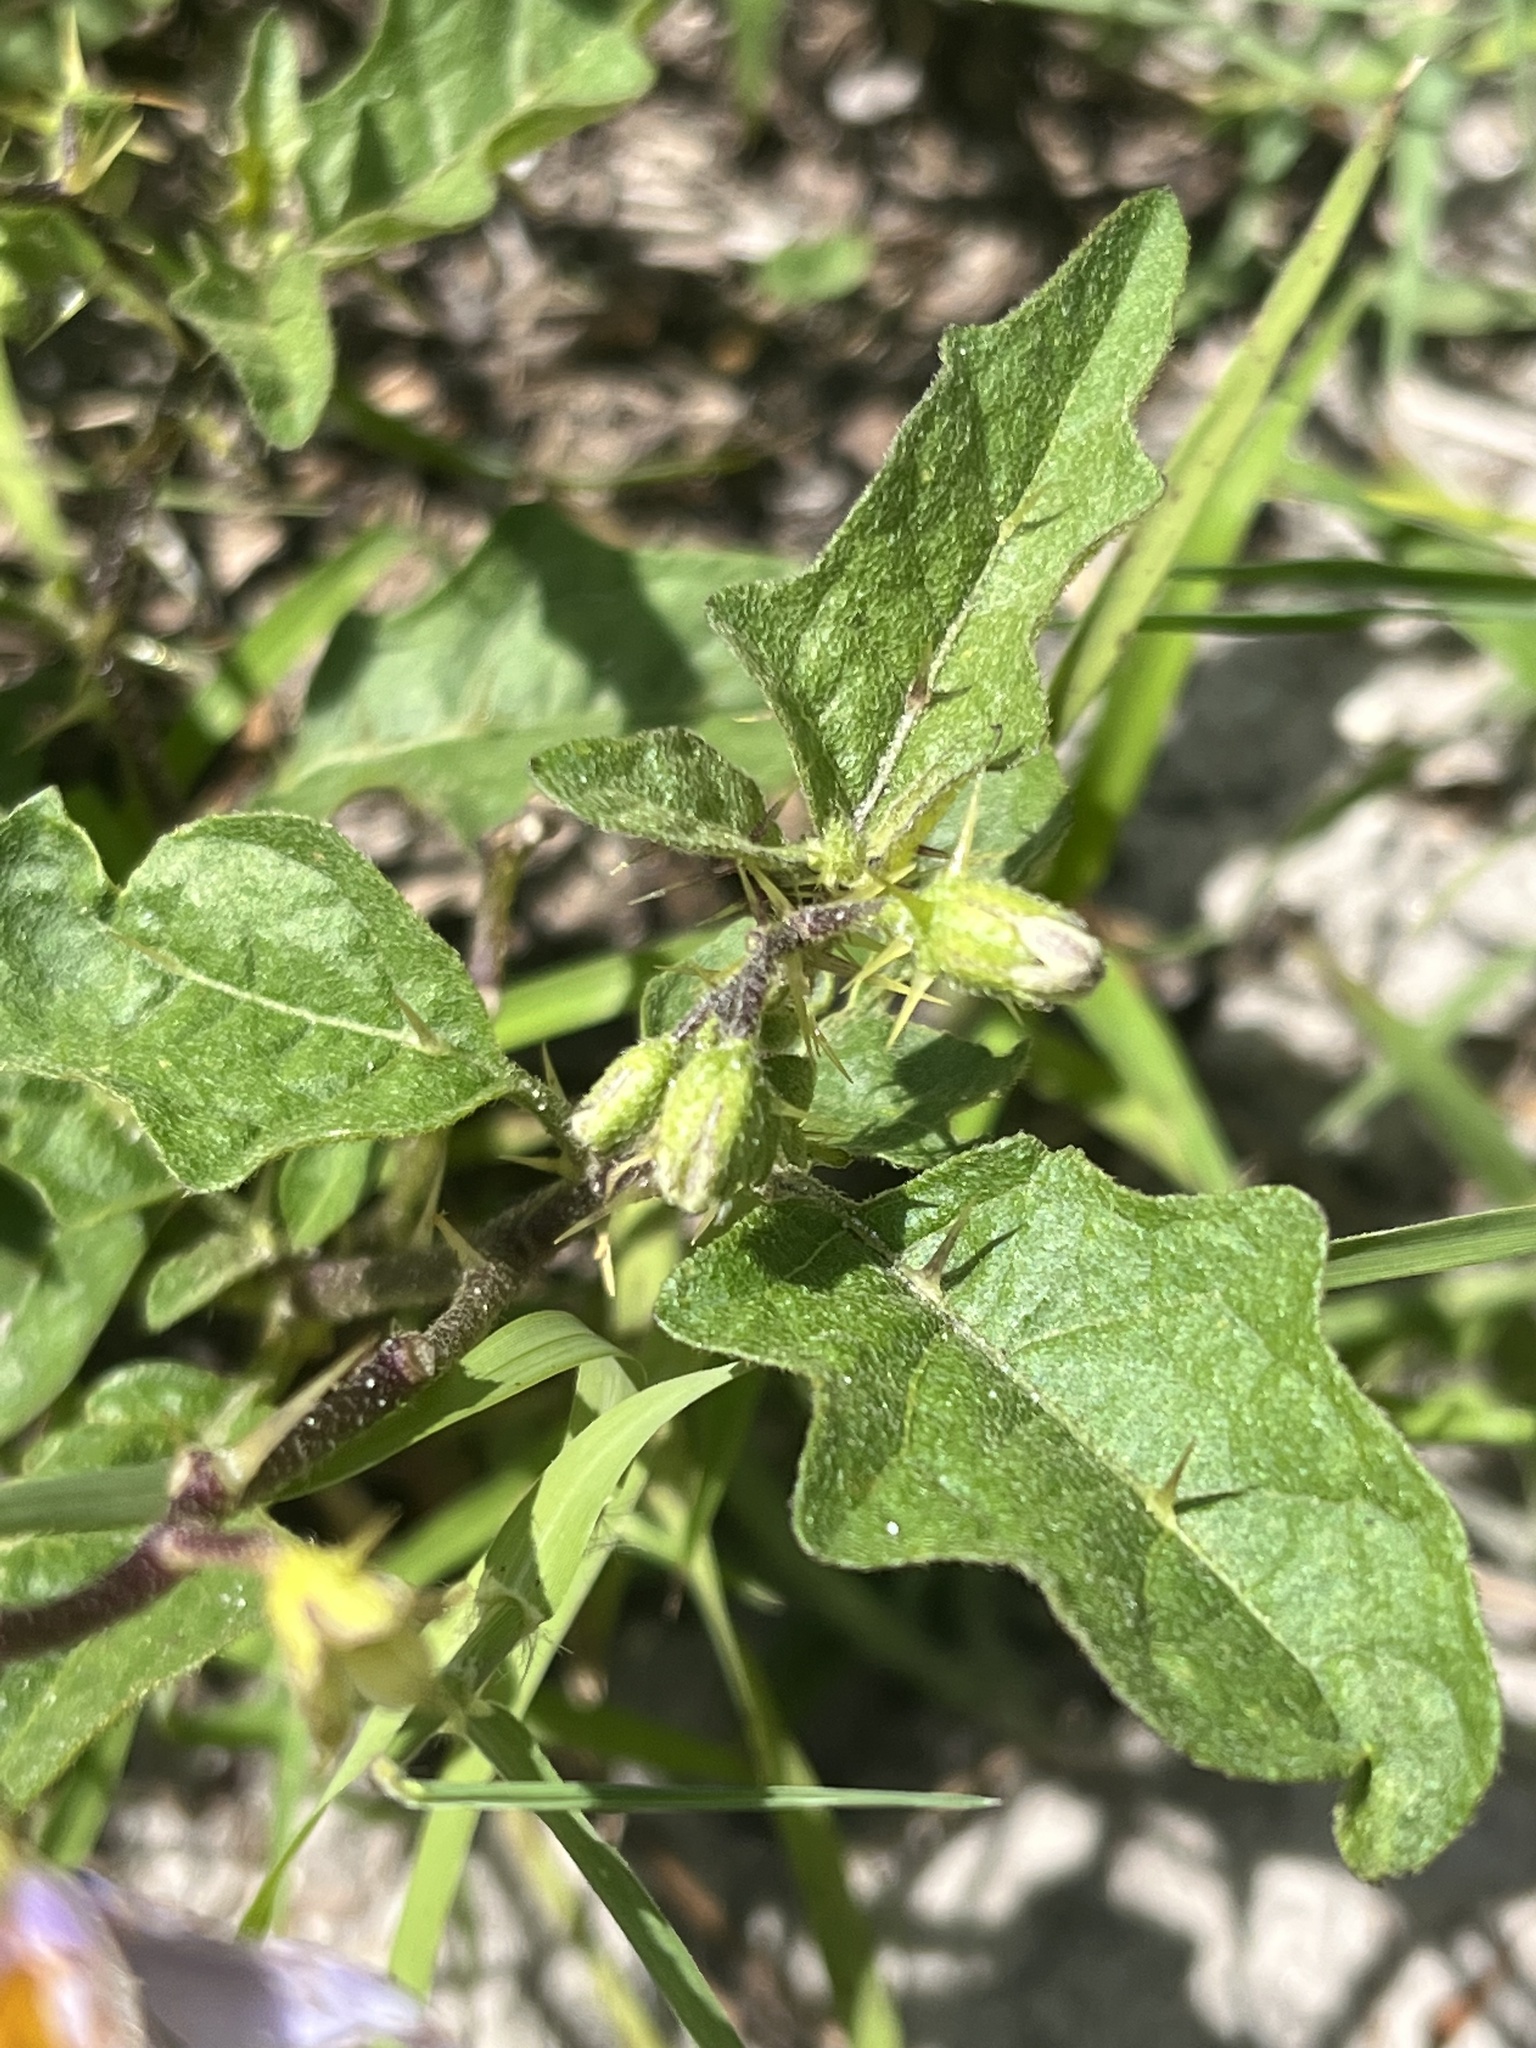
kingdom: Plantae
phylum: Tracheophyta
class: Magnoliopsida
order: Solanales
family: Solanaceae
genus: Solanum
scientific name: Solanum carolinense
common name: Horse-nettle
